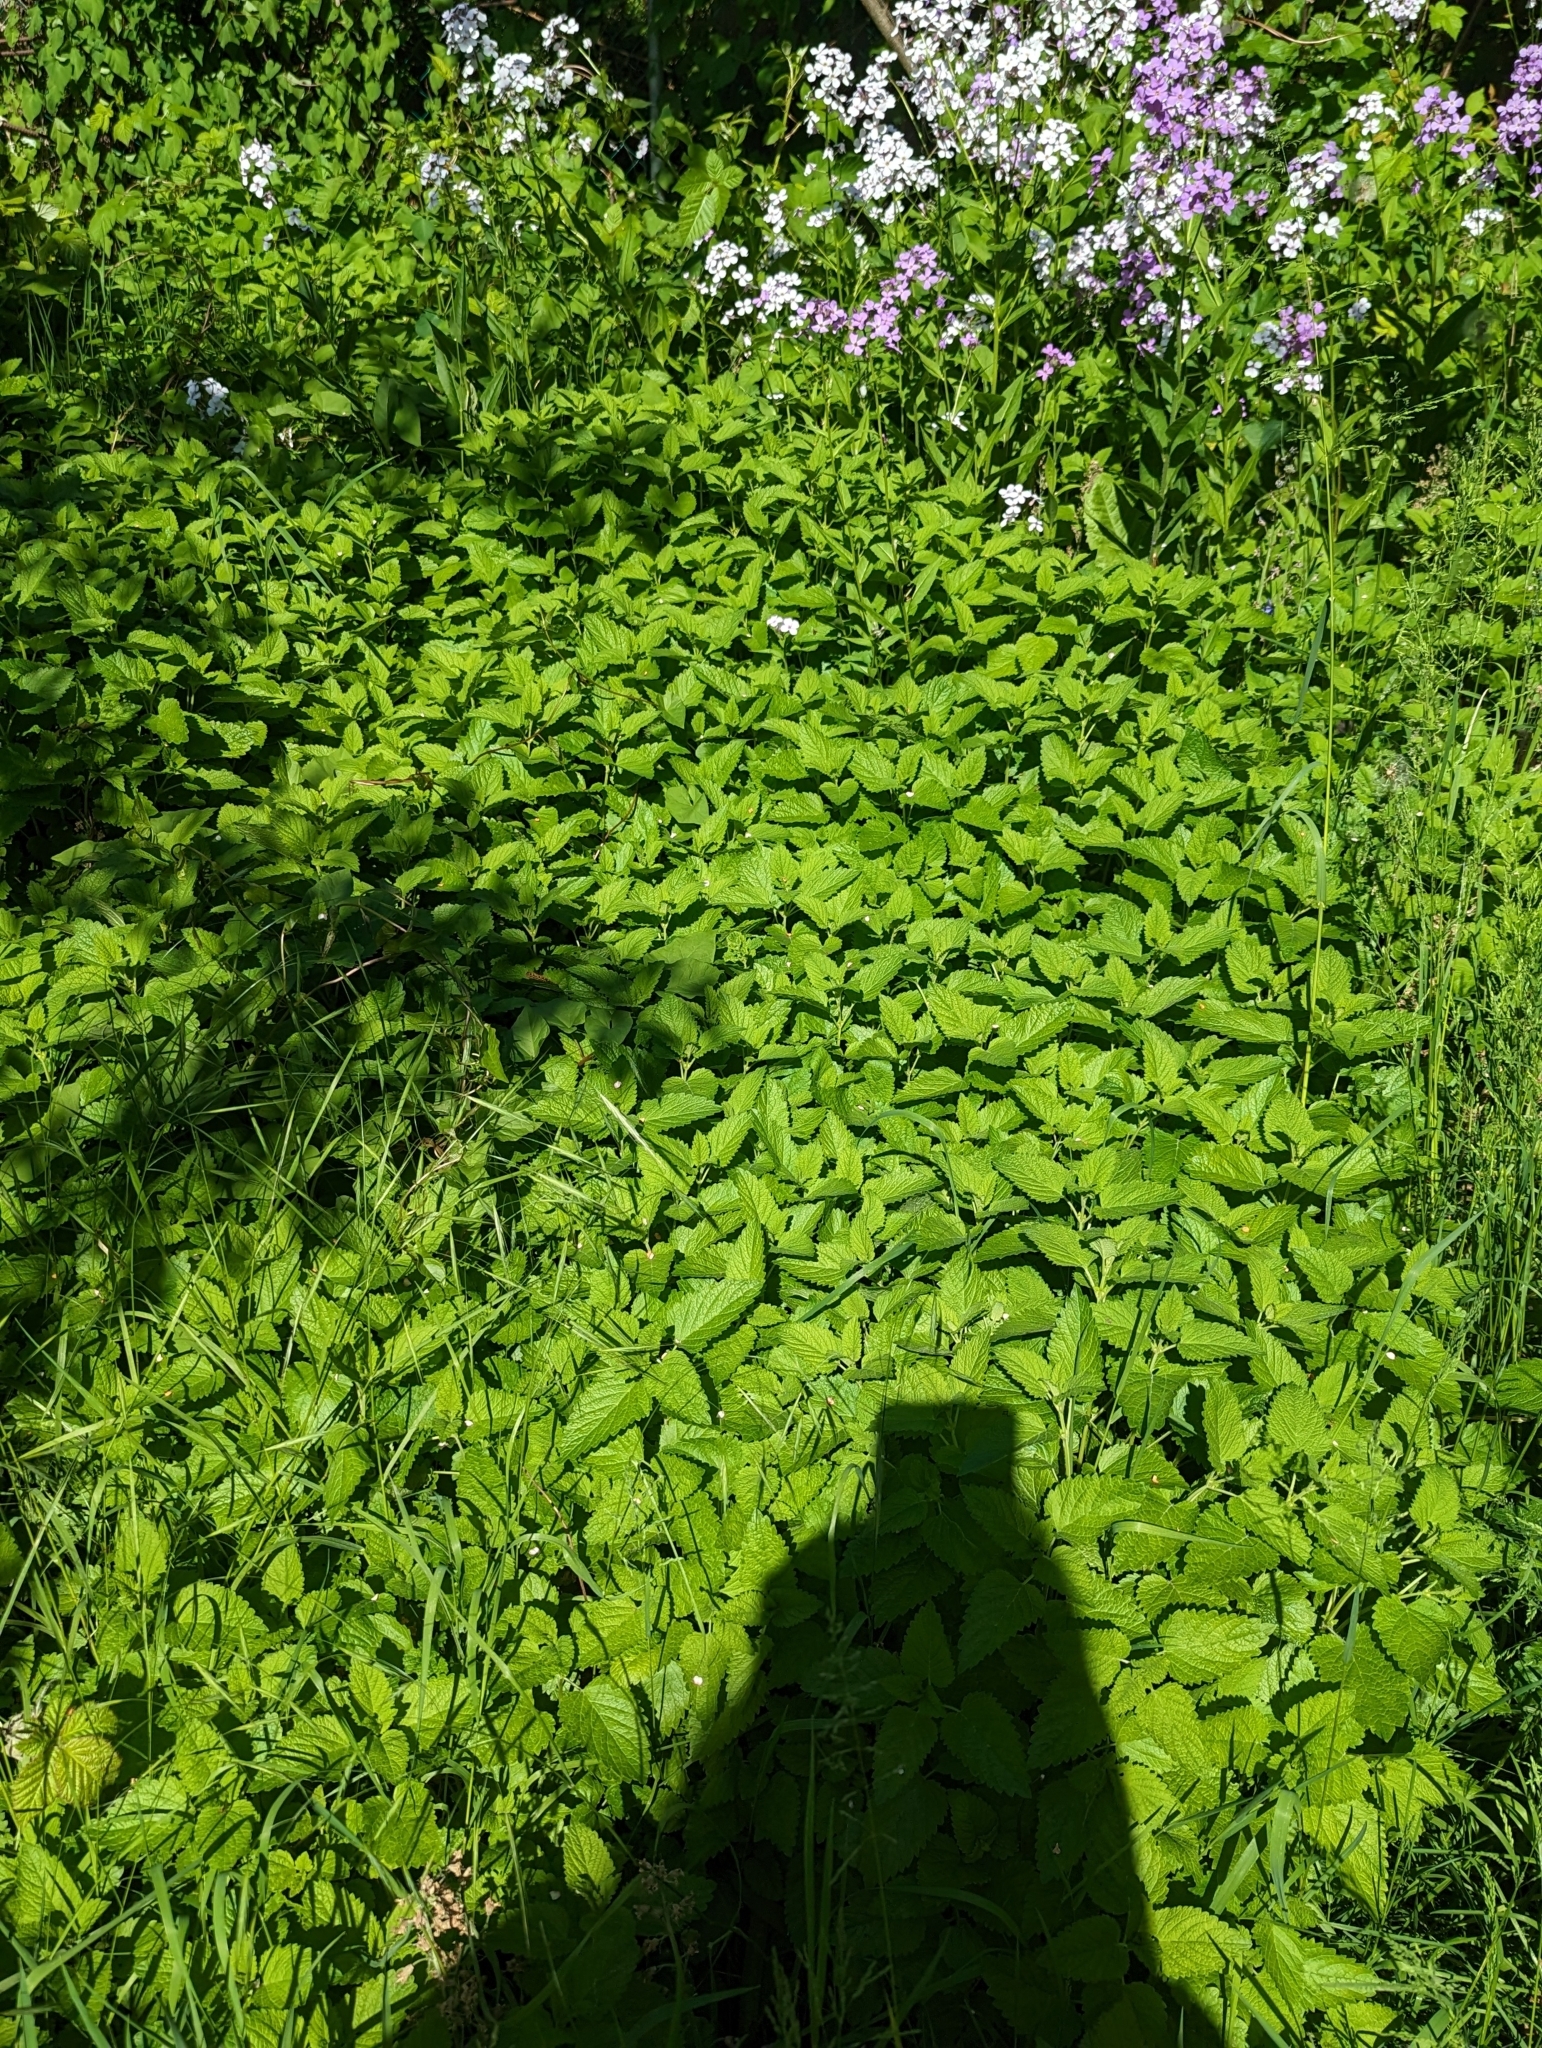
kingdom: Plantae
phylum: Tracheophyta
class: Magnoliopsida
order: Lamiales
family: Lamiaceae
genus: Melissa
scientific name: Melissa officinalis
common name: Balm
